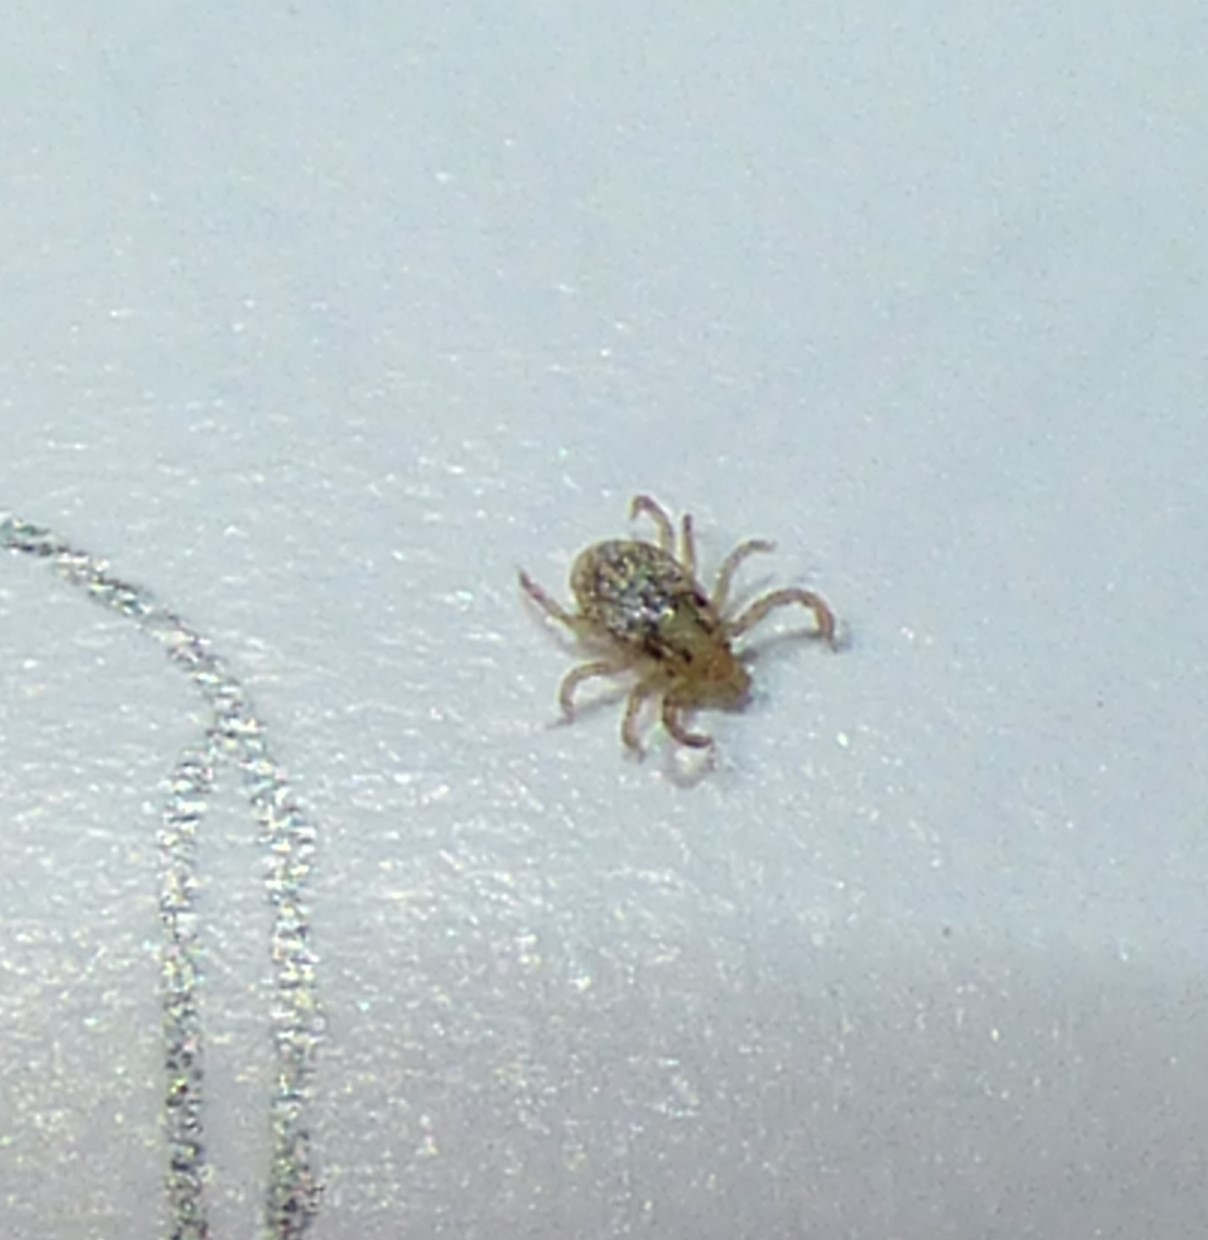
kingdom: Animalia
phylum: Arthropoda
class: Arachnida
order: Ixodida
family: Ixodidae
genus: Amblyomma
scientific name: Amblyomma maculatum
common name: Gulf coast tick
